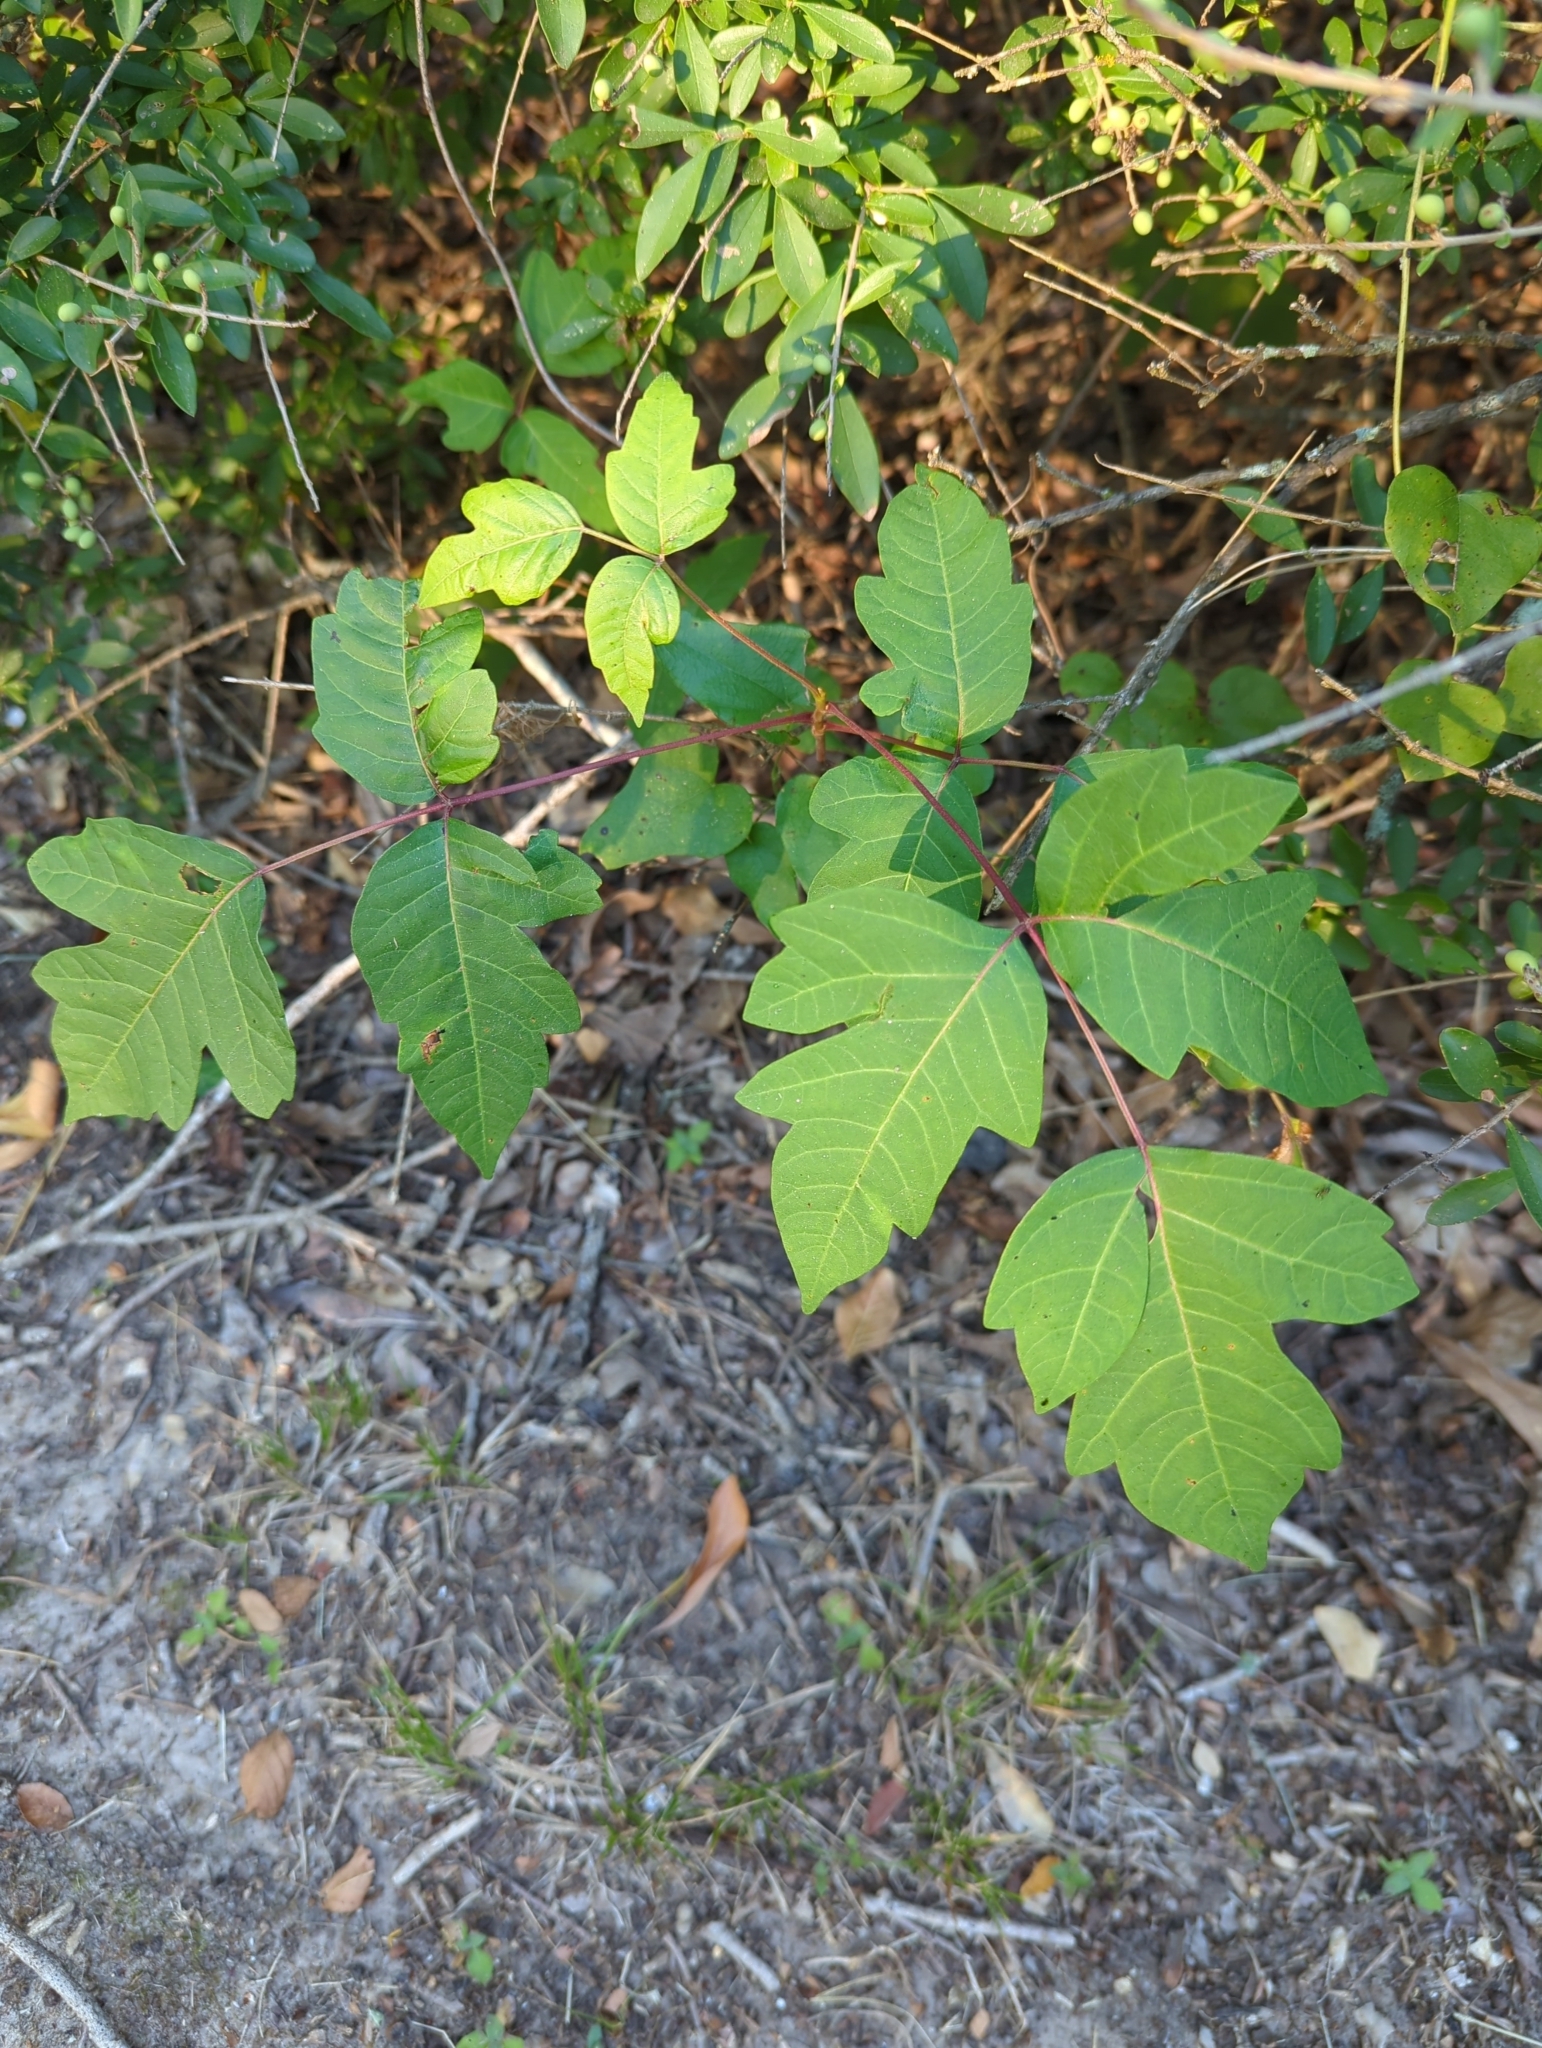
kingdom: Plantae
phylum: Tracheophyta
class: Magnoliopsida
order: Sapindales
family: Anacardiaceae
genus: Toxicodendron
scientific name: Toxicodendron radicans
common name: Poison ivy
